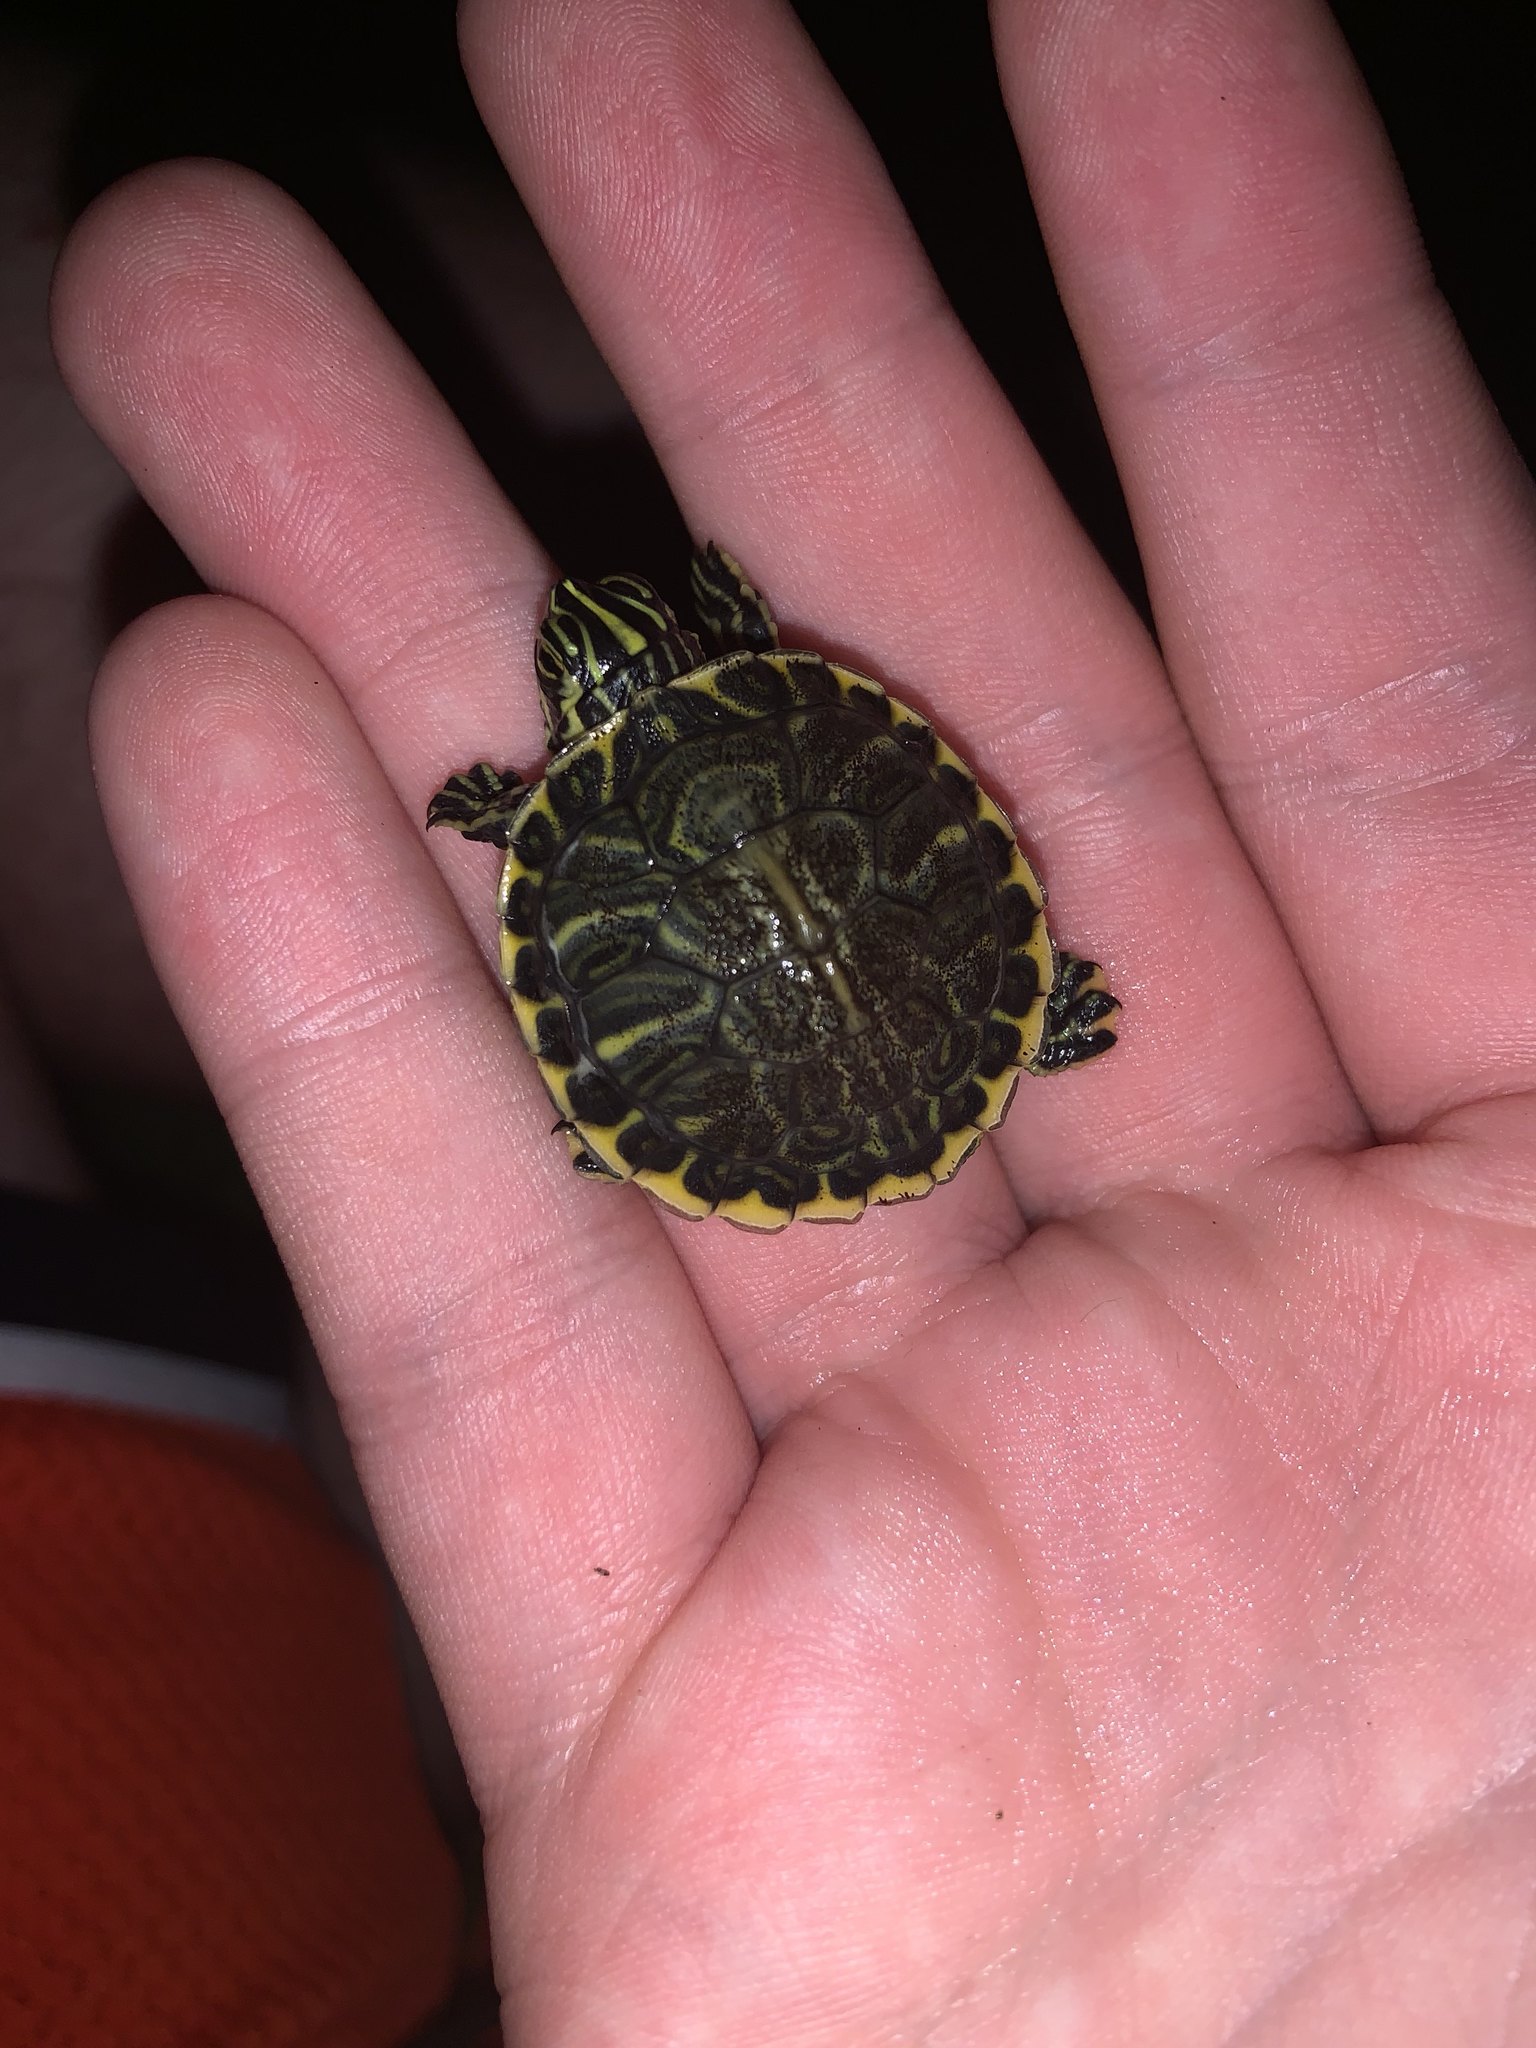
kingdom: Animalia
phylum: Chordata
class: Testudines
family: Emydidae
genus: Pseudemys
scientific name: Pseudemys peninsularis
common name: Peninsula cooter
